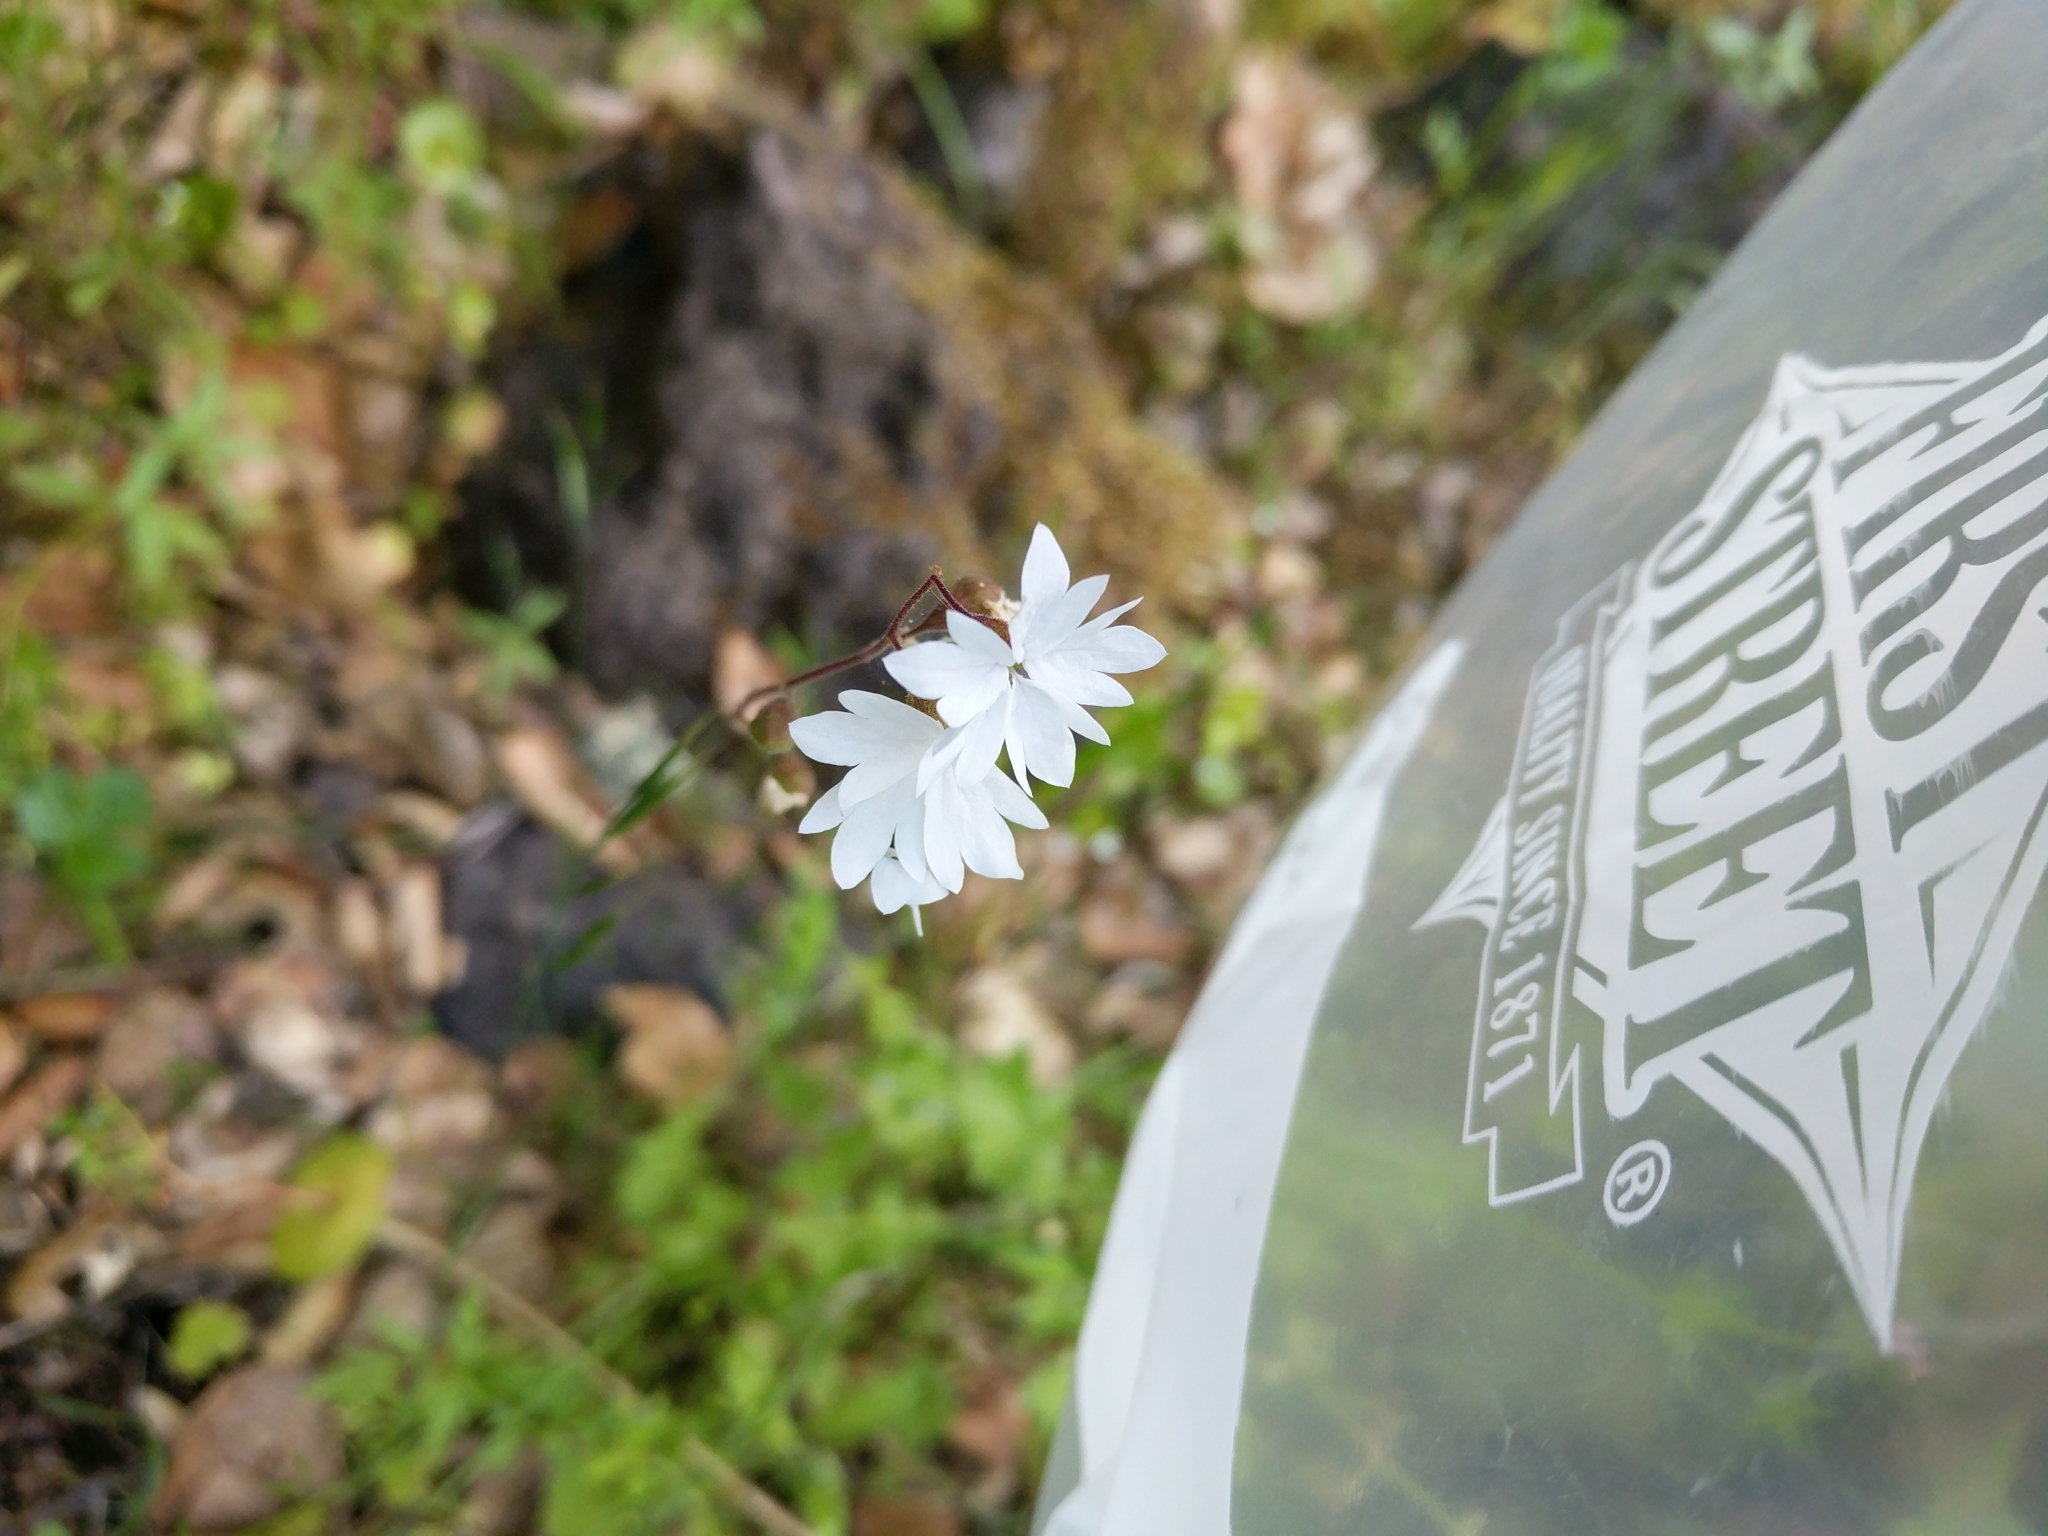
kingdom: Plantae
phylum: Tracheophyta
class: Magnoliopsida
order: Saxifragales
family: Saxifragaceae
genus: Lithophragma
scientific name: Lithophragma affine
